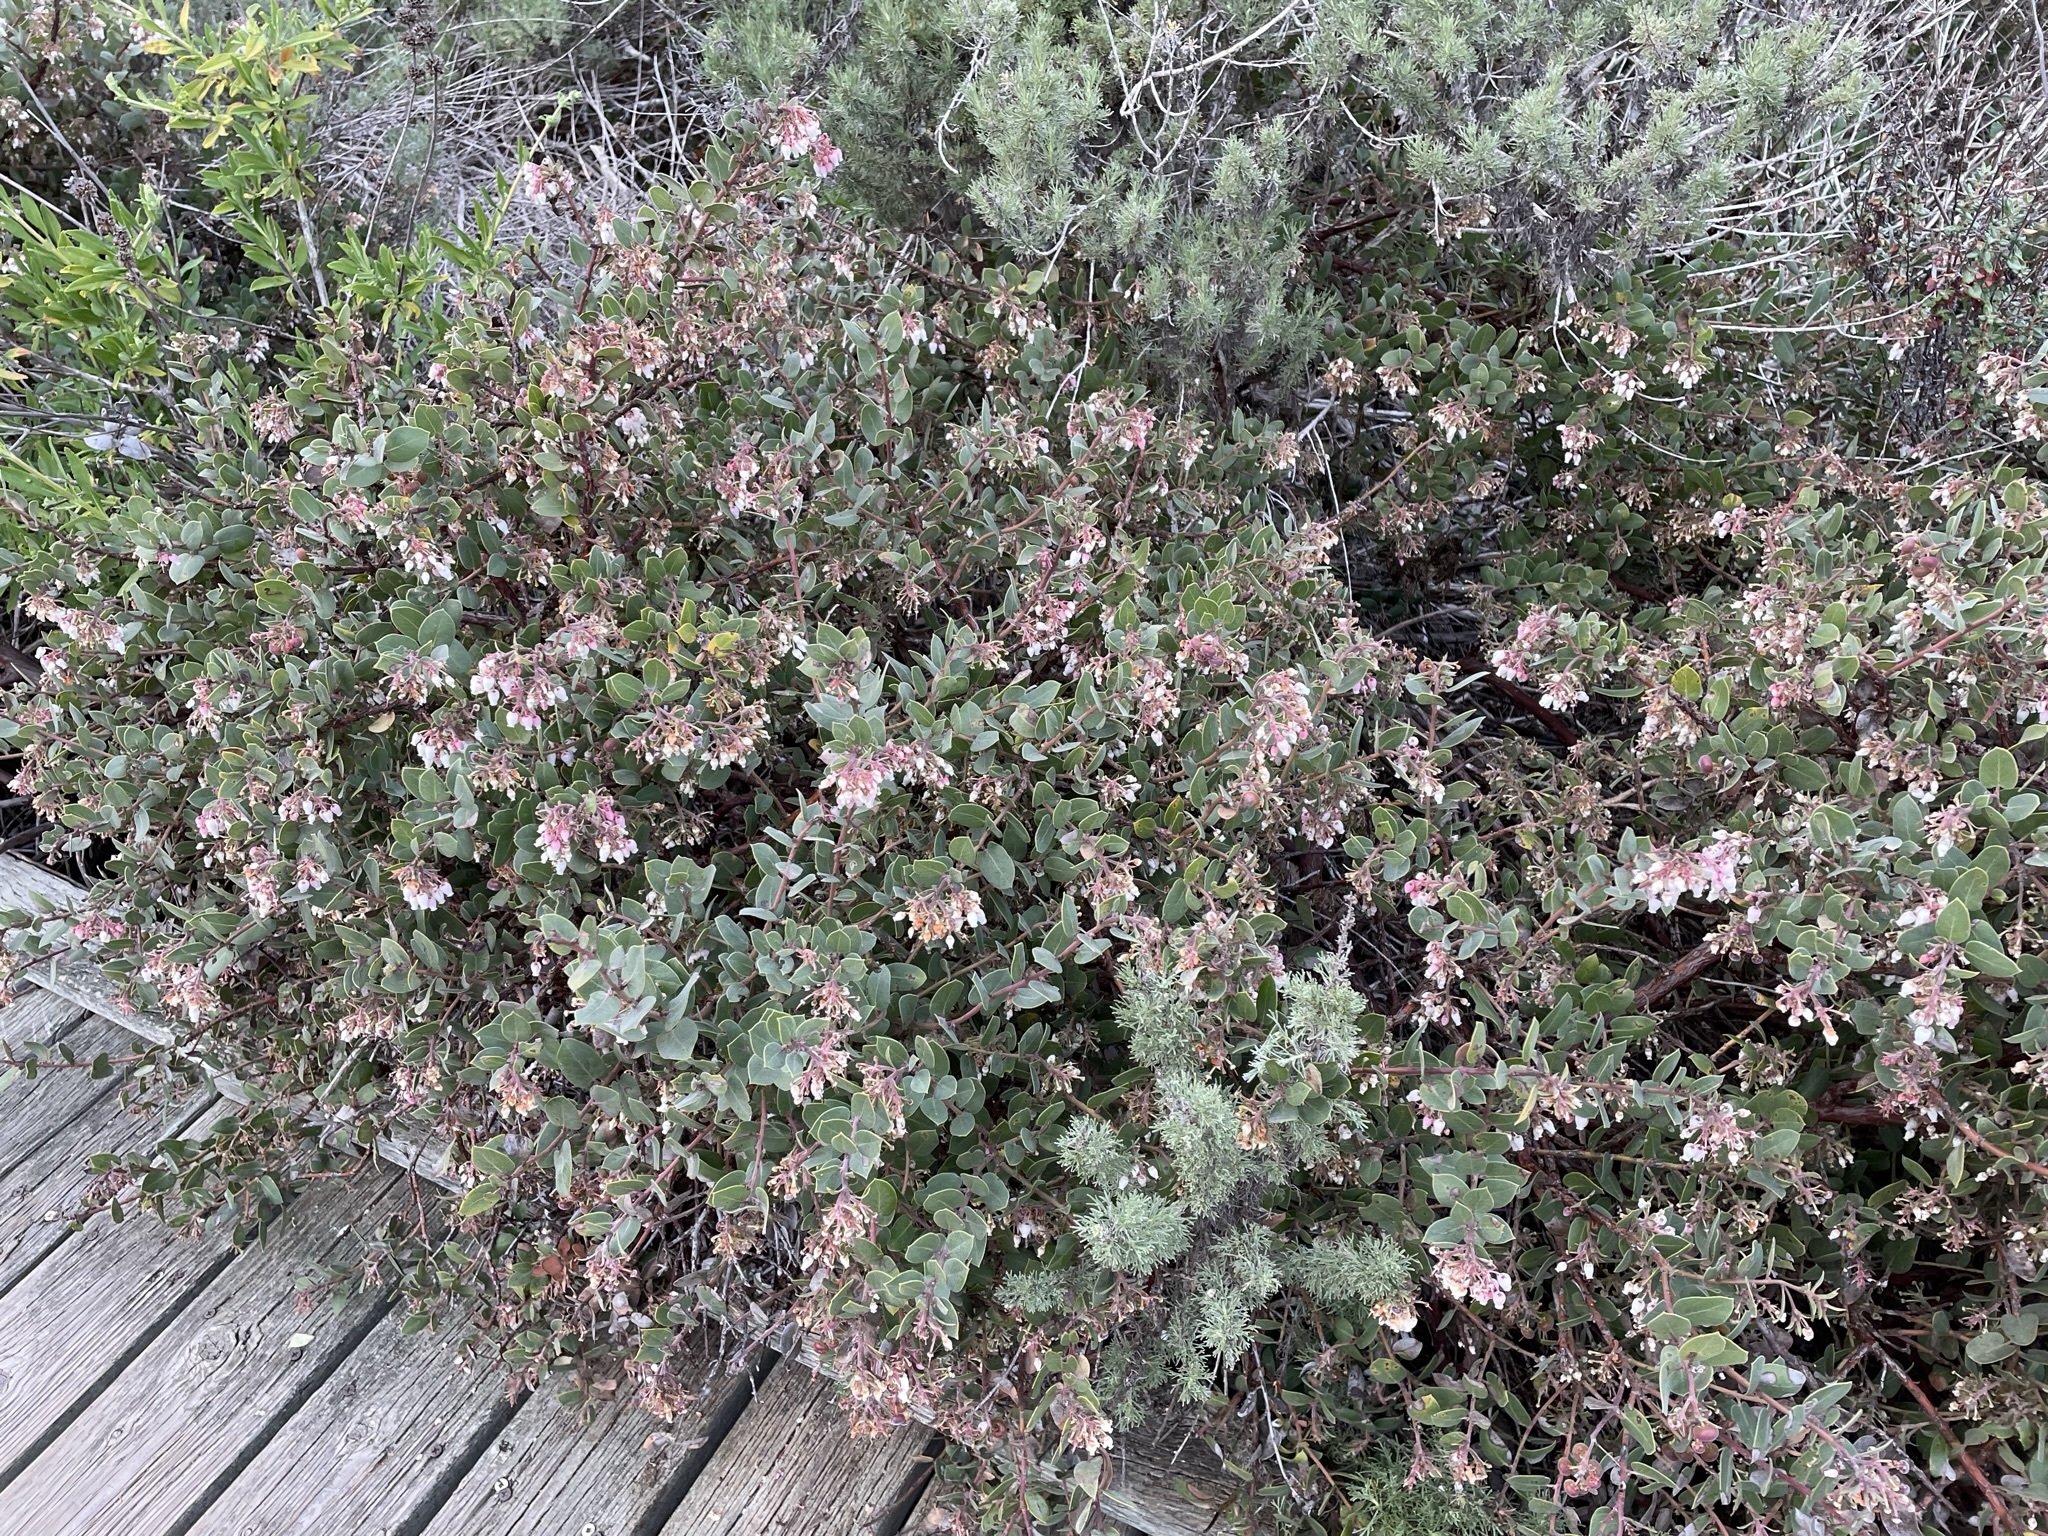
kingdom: Plantae
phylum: Tracheophyta
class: Magnoliopsida
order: Ericales
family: Ericaceae
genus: Arctostaphylos
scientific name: Arctostaphylos morroensis
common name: Morro manzanita
